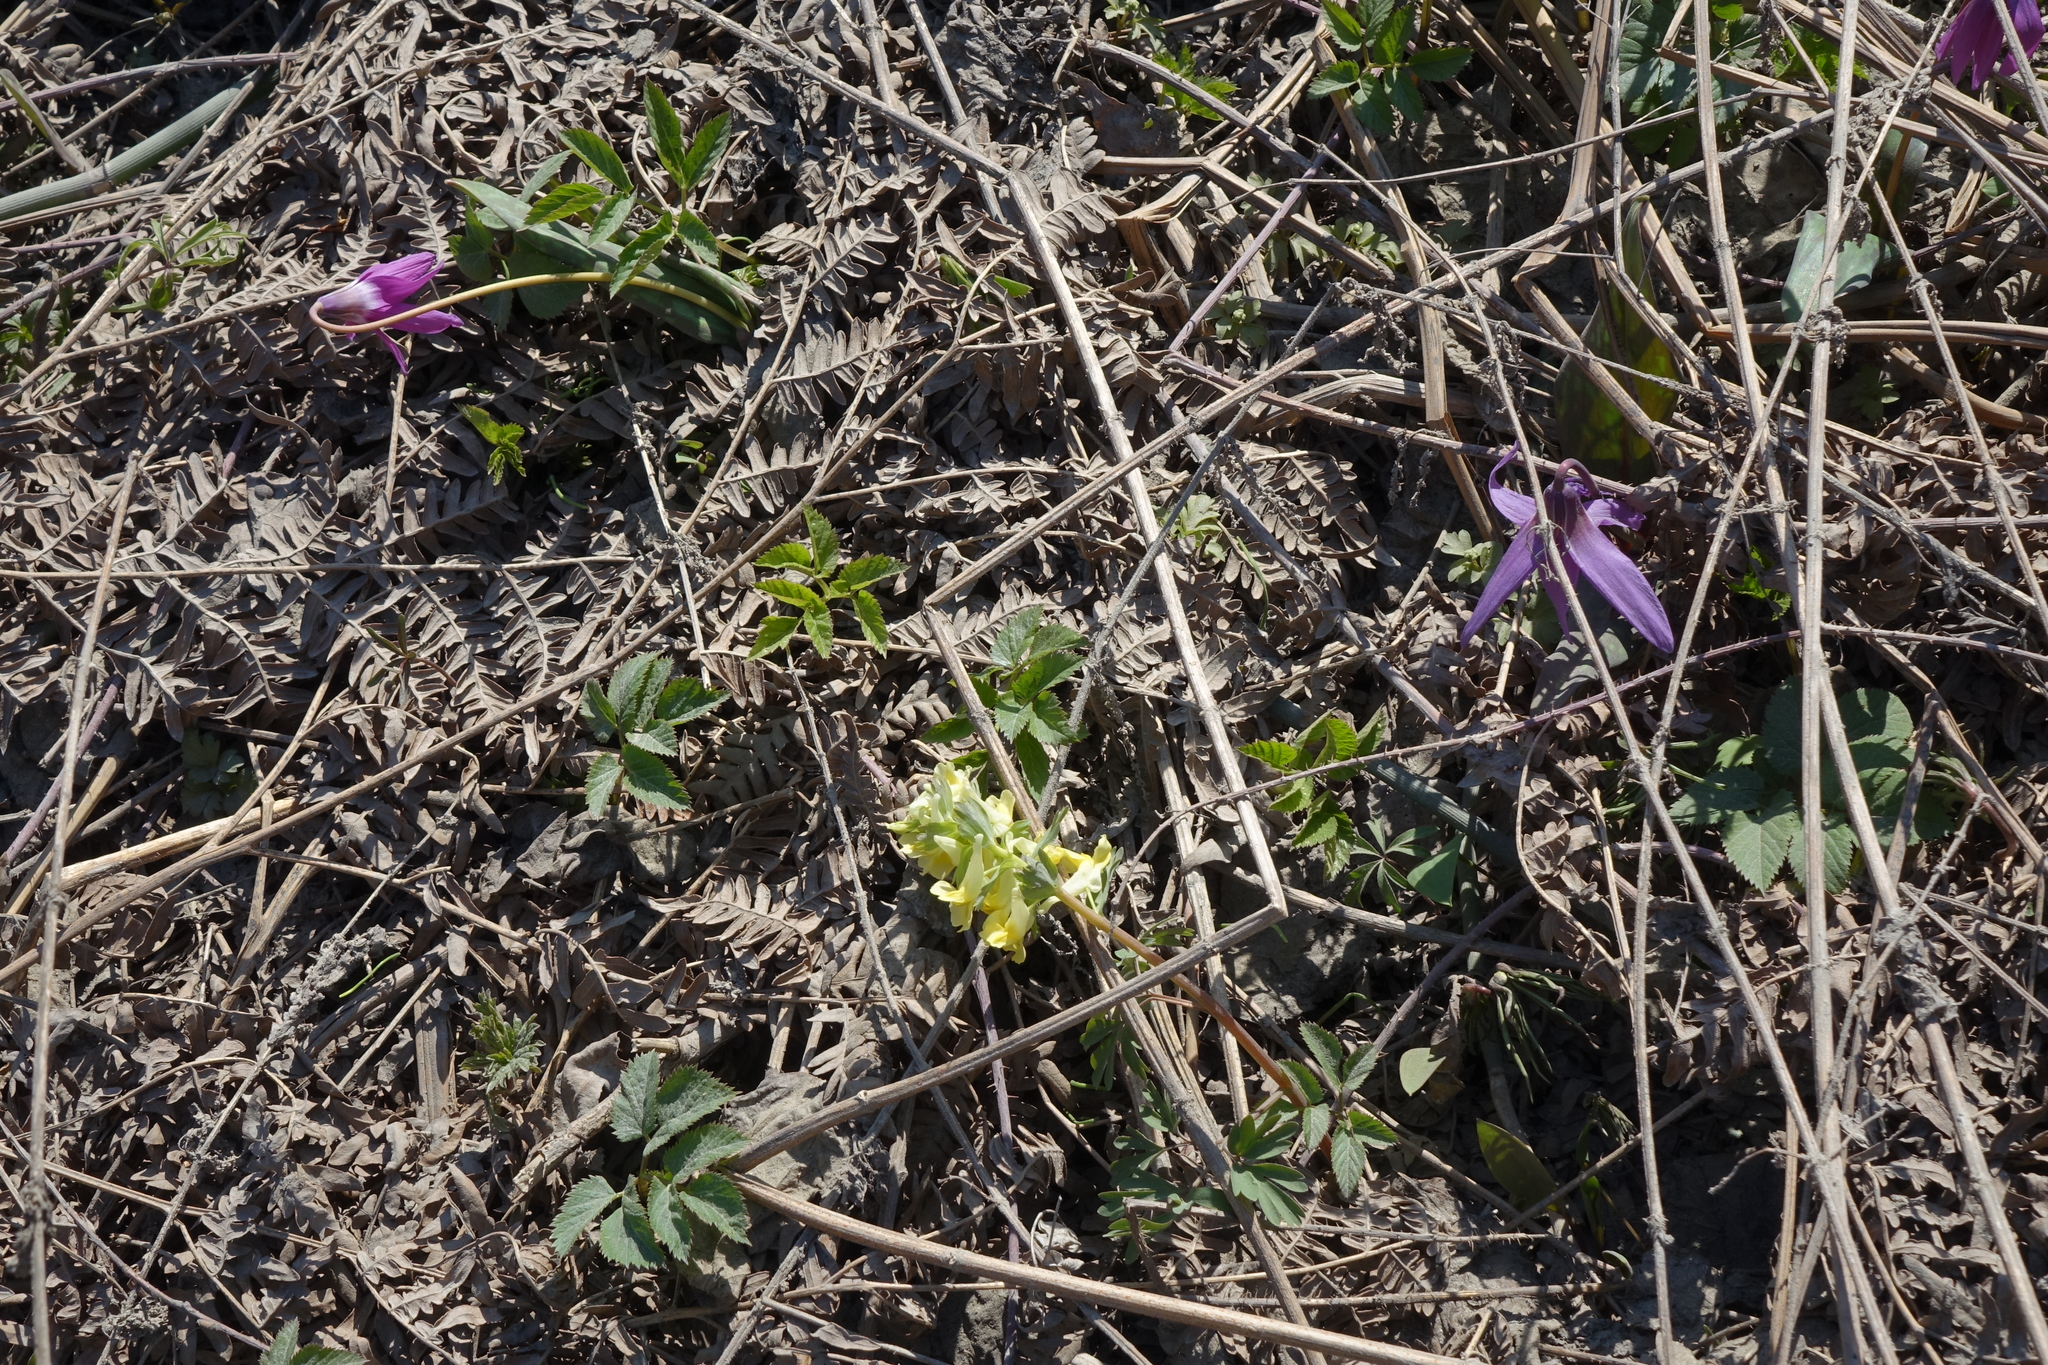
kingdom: Plantae
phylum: Tracheophyta
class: Magnoliopsida
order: Ranunculales
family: Papaveraceae
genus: Corydalis
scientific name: Corydalis bracteata
